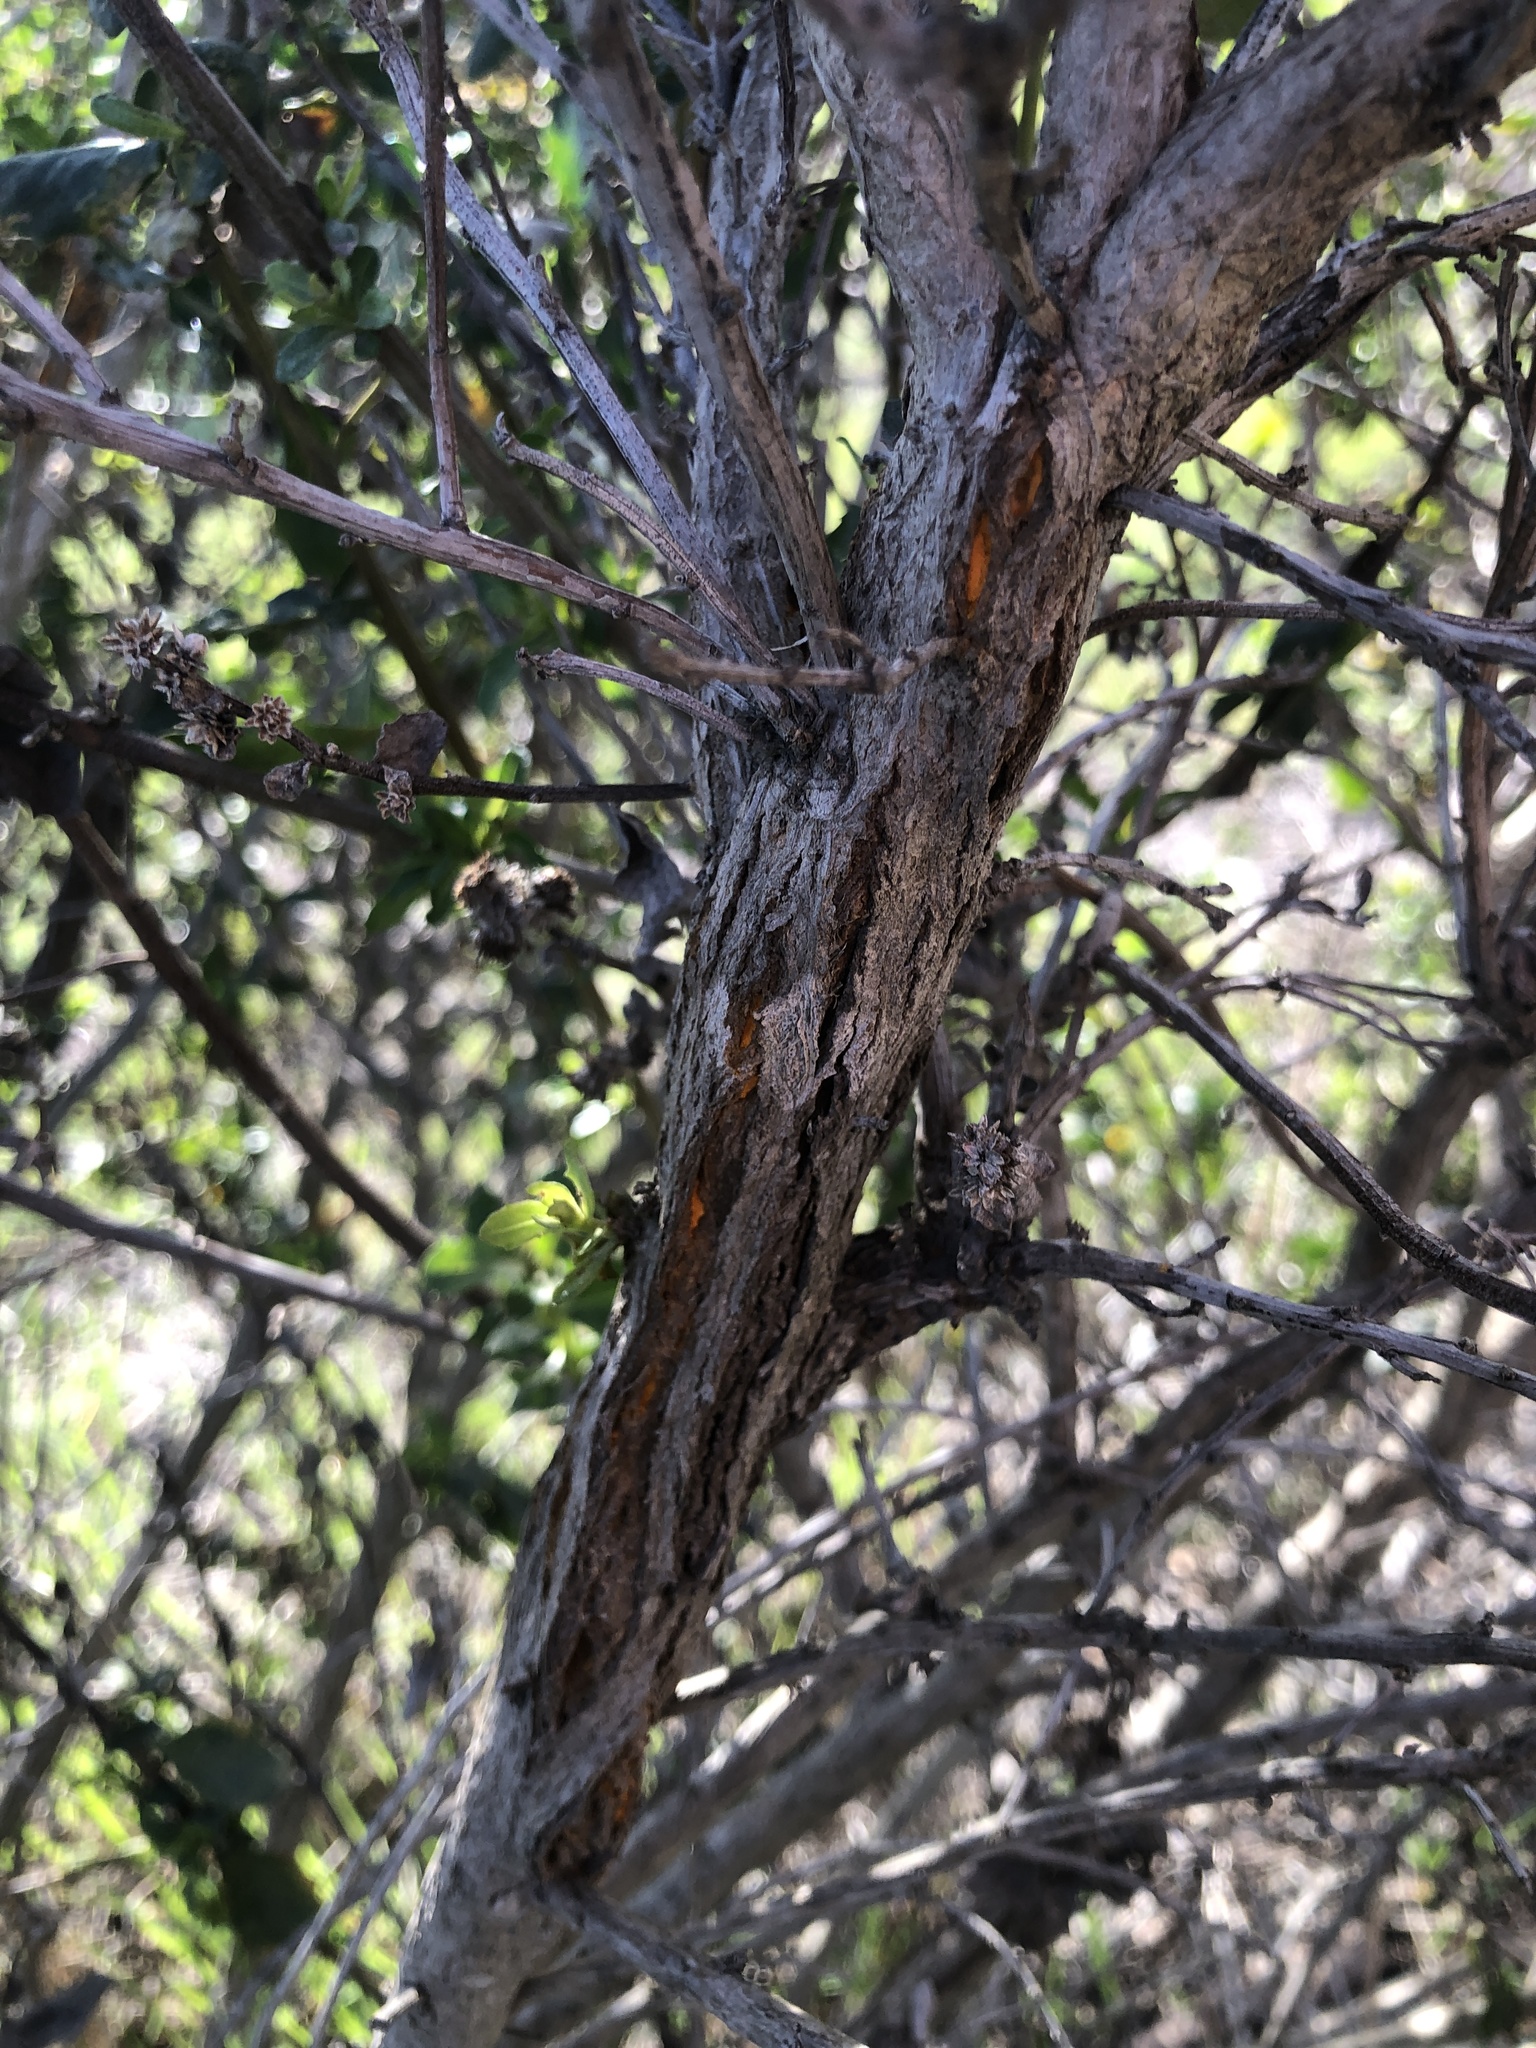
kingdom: Fungi
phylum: Basidiomycota
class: Pucciniomycetes
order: Pucciniales
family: Pucciniaceae
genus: Eriosporangium
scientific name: Eriosporangium evadens
